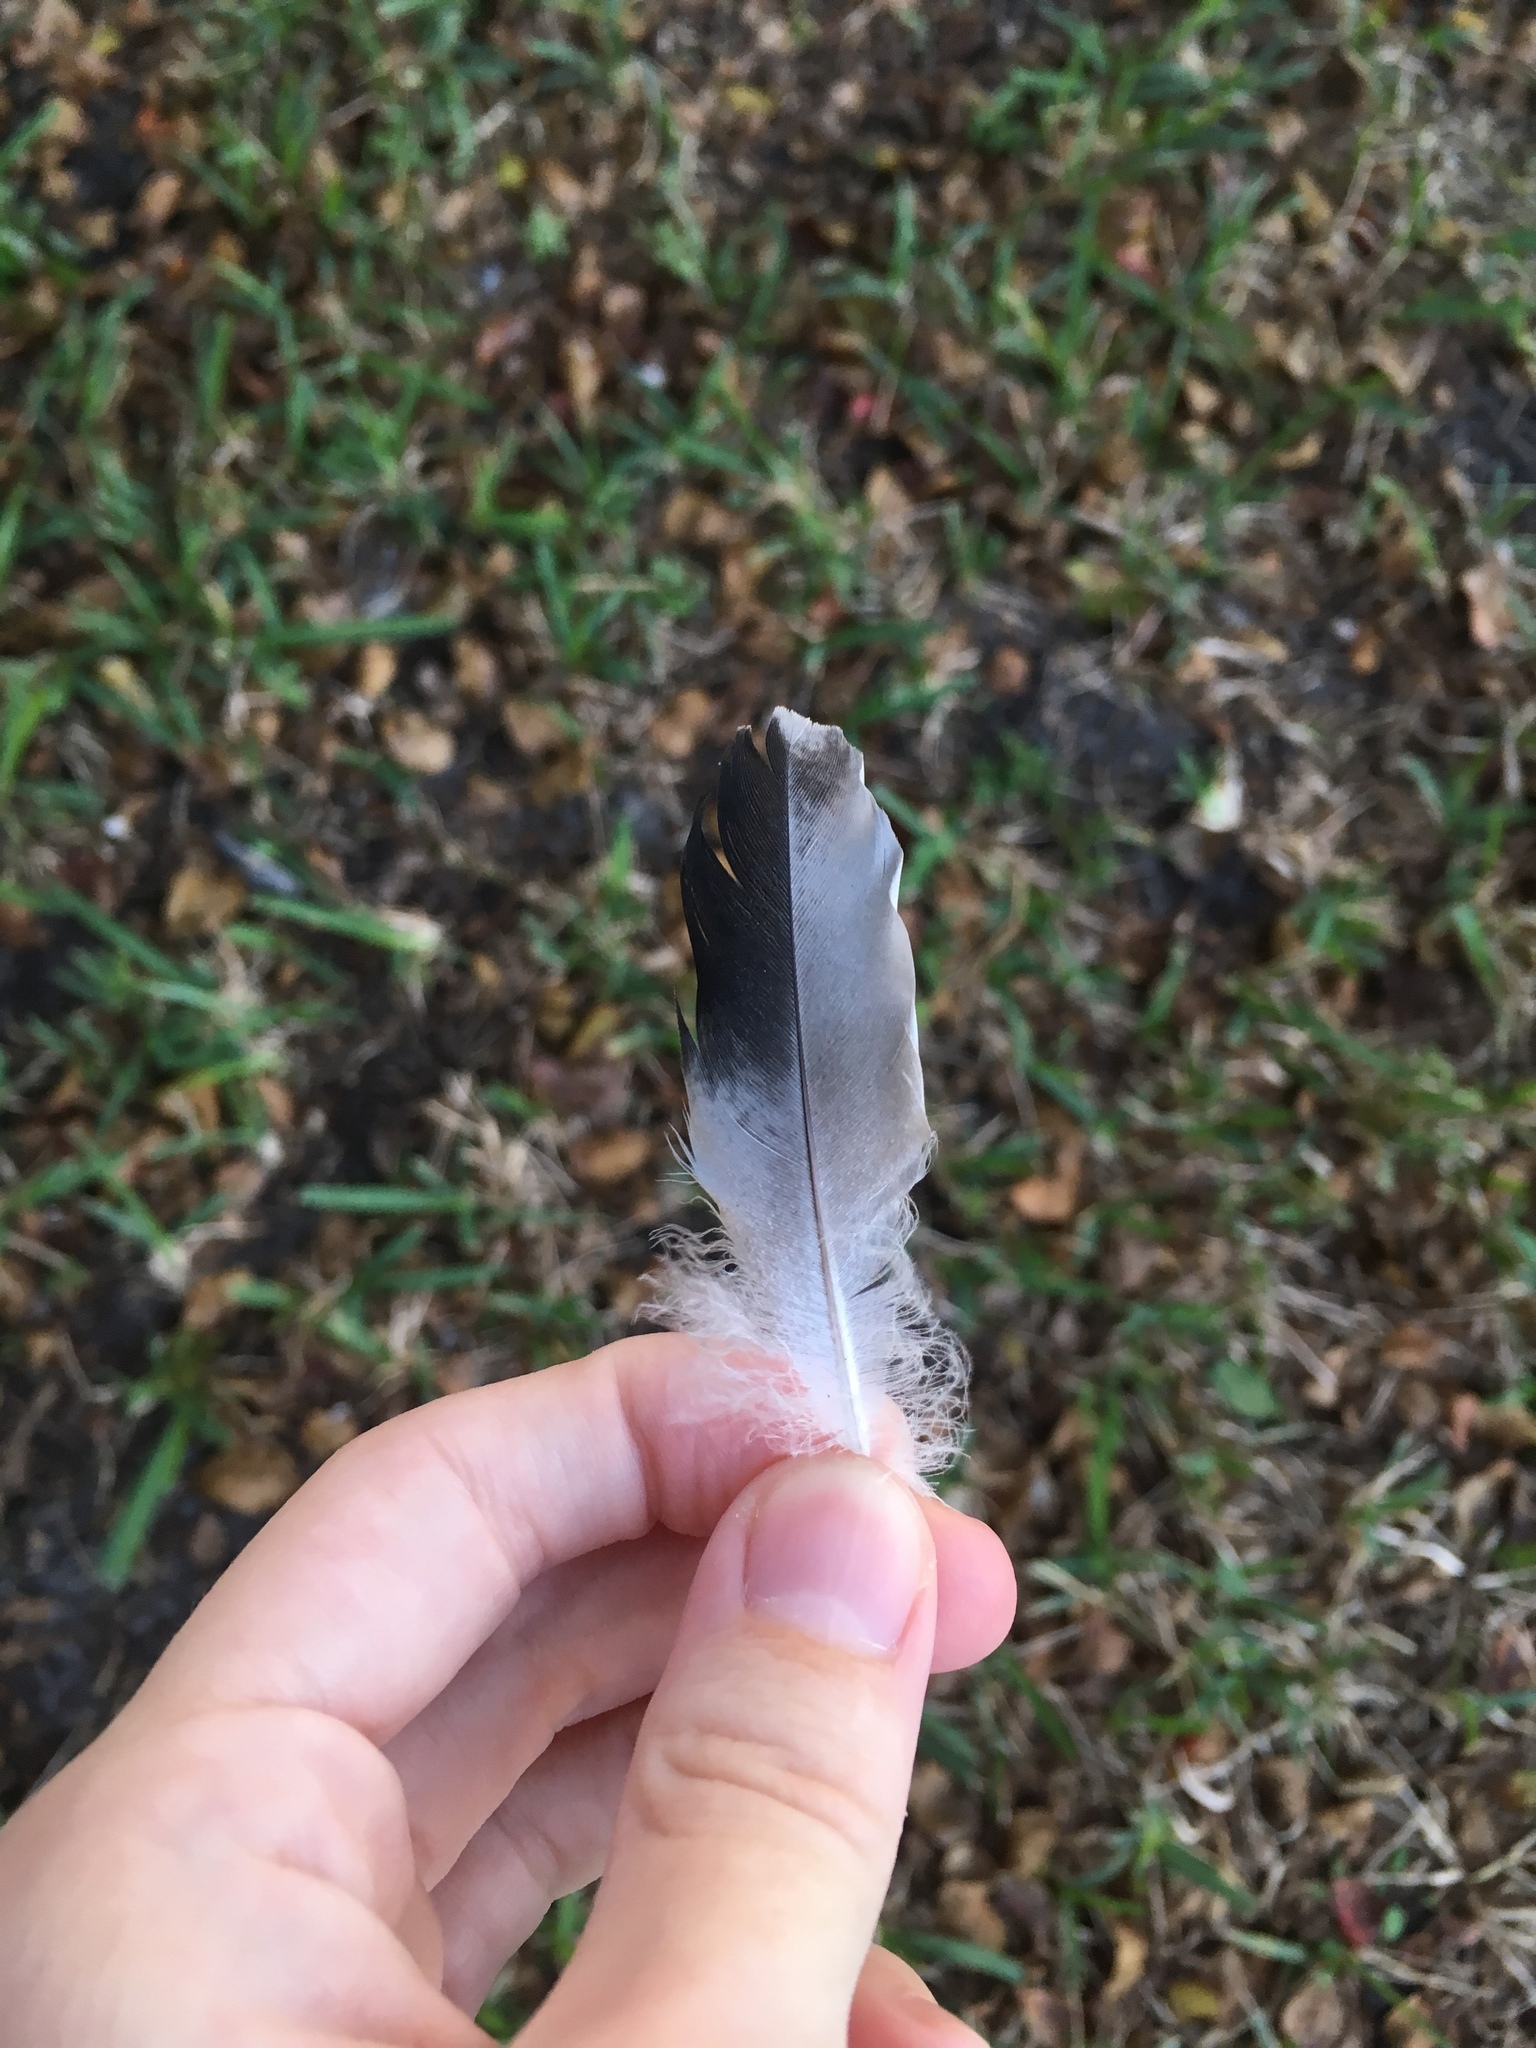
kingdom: Animalia
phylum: Chordata
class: Aves
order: Columbiformes
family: Columbidae
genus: Columba
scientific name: Columba livia
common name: Rock pigeon
